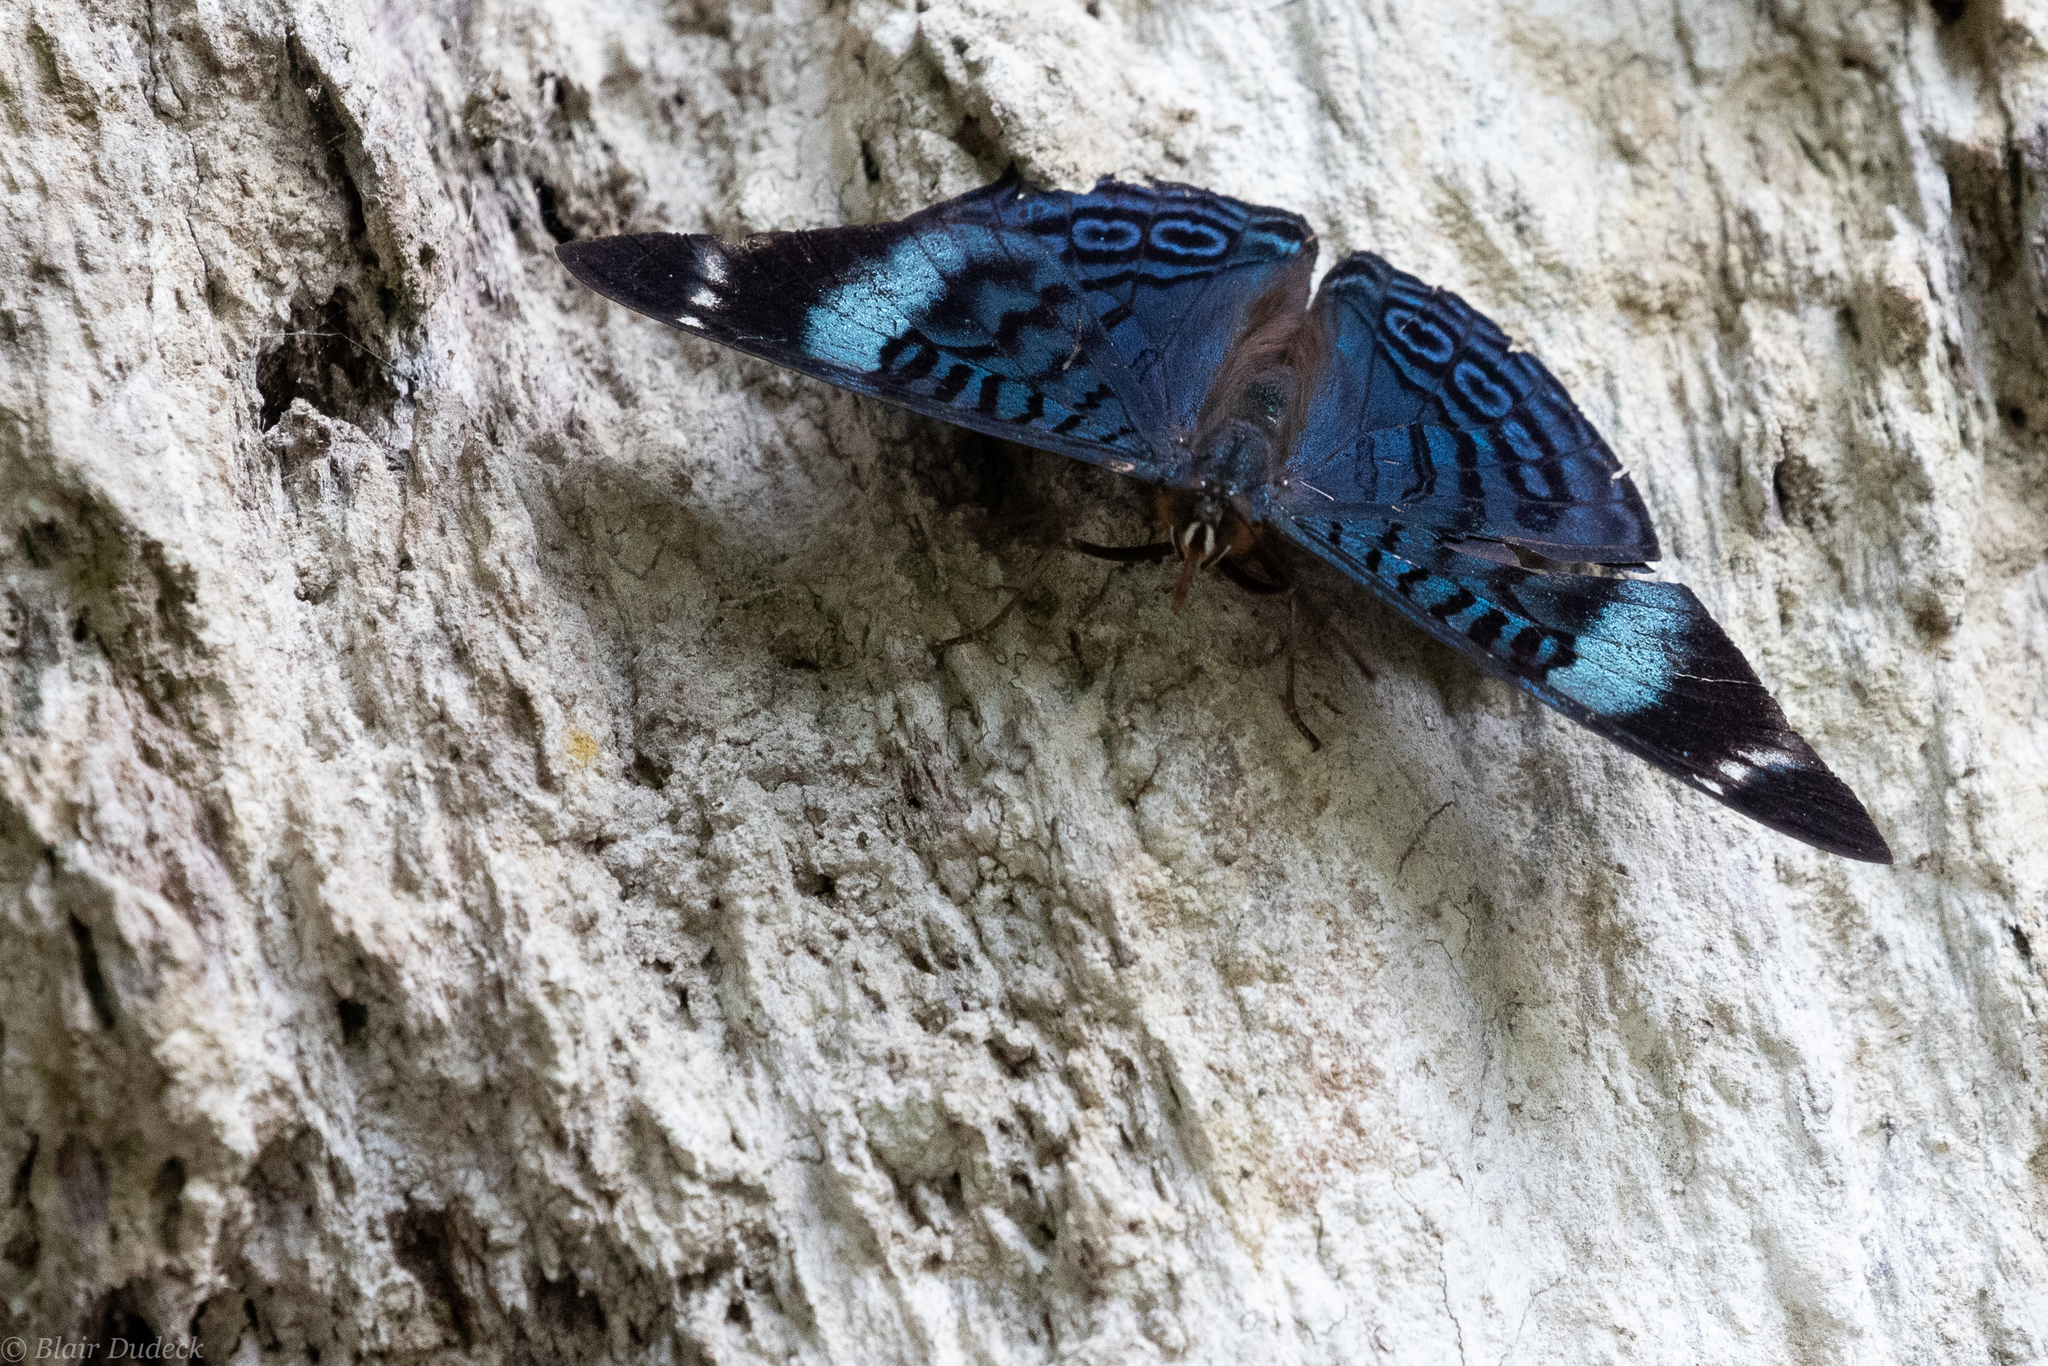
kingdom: Animalia
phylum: Arthropoda
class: Insecta
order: Lepidoptera
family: Nymphalidae
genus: Panacea
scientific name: Panacea procilla
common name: Procilla beauty
